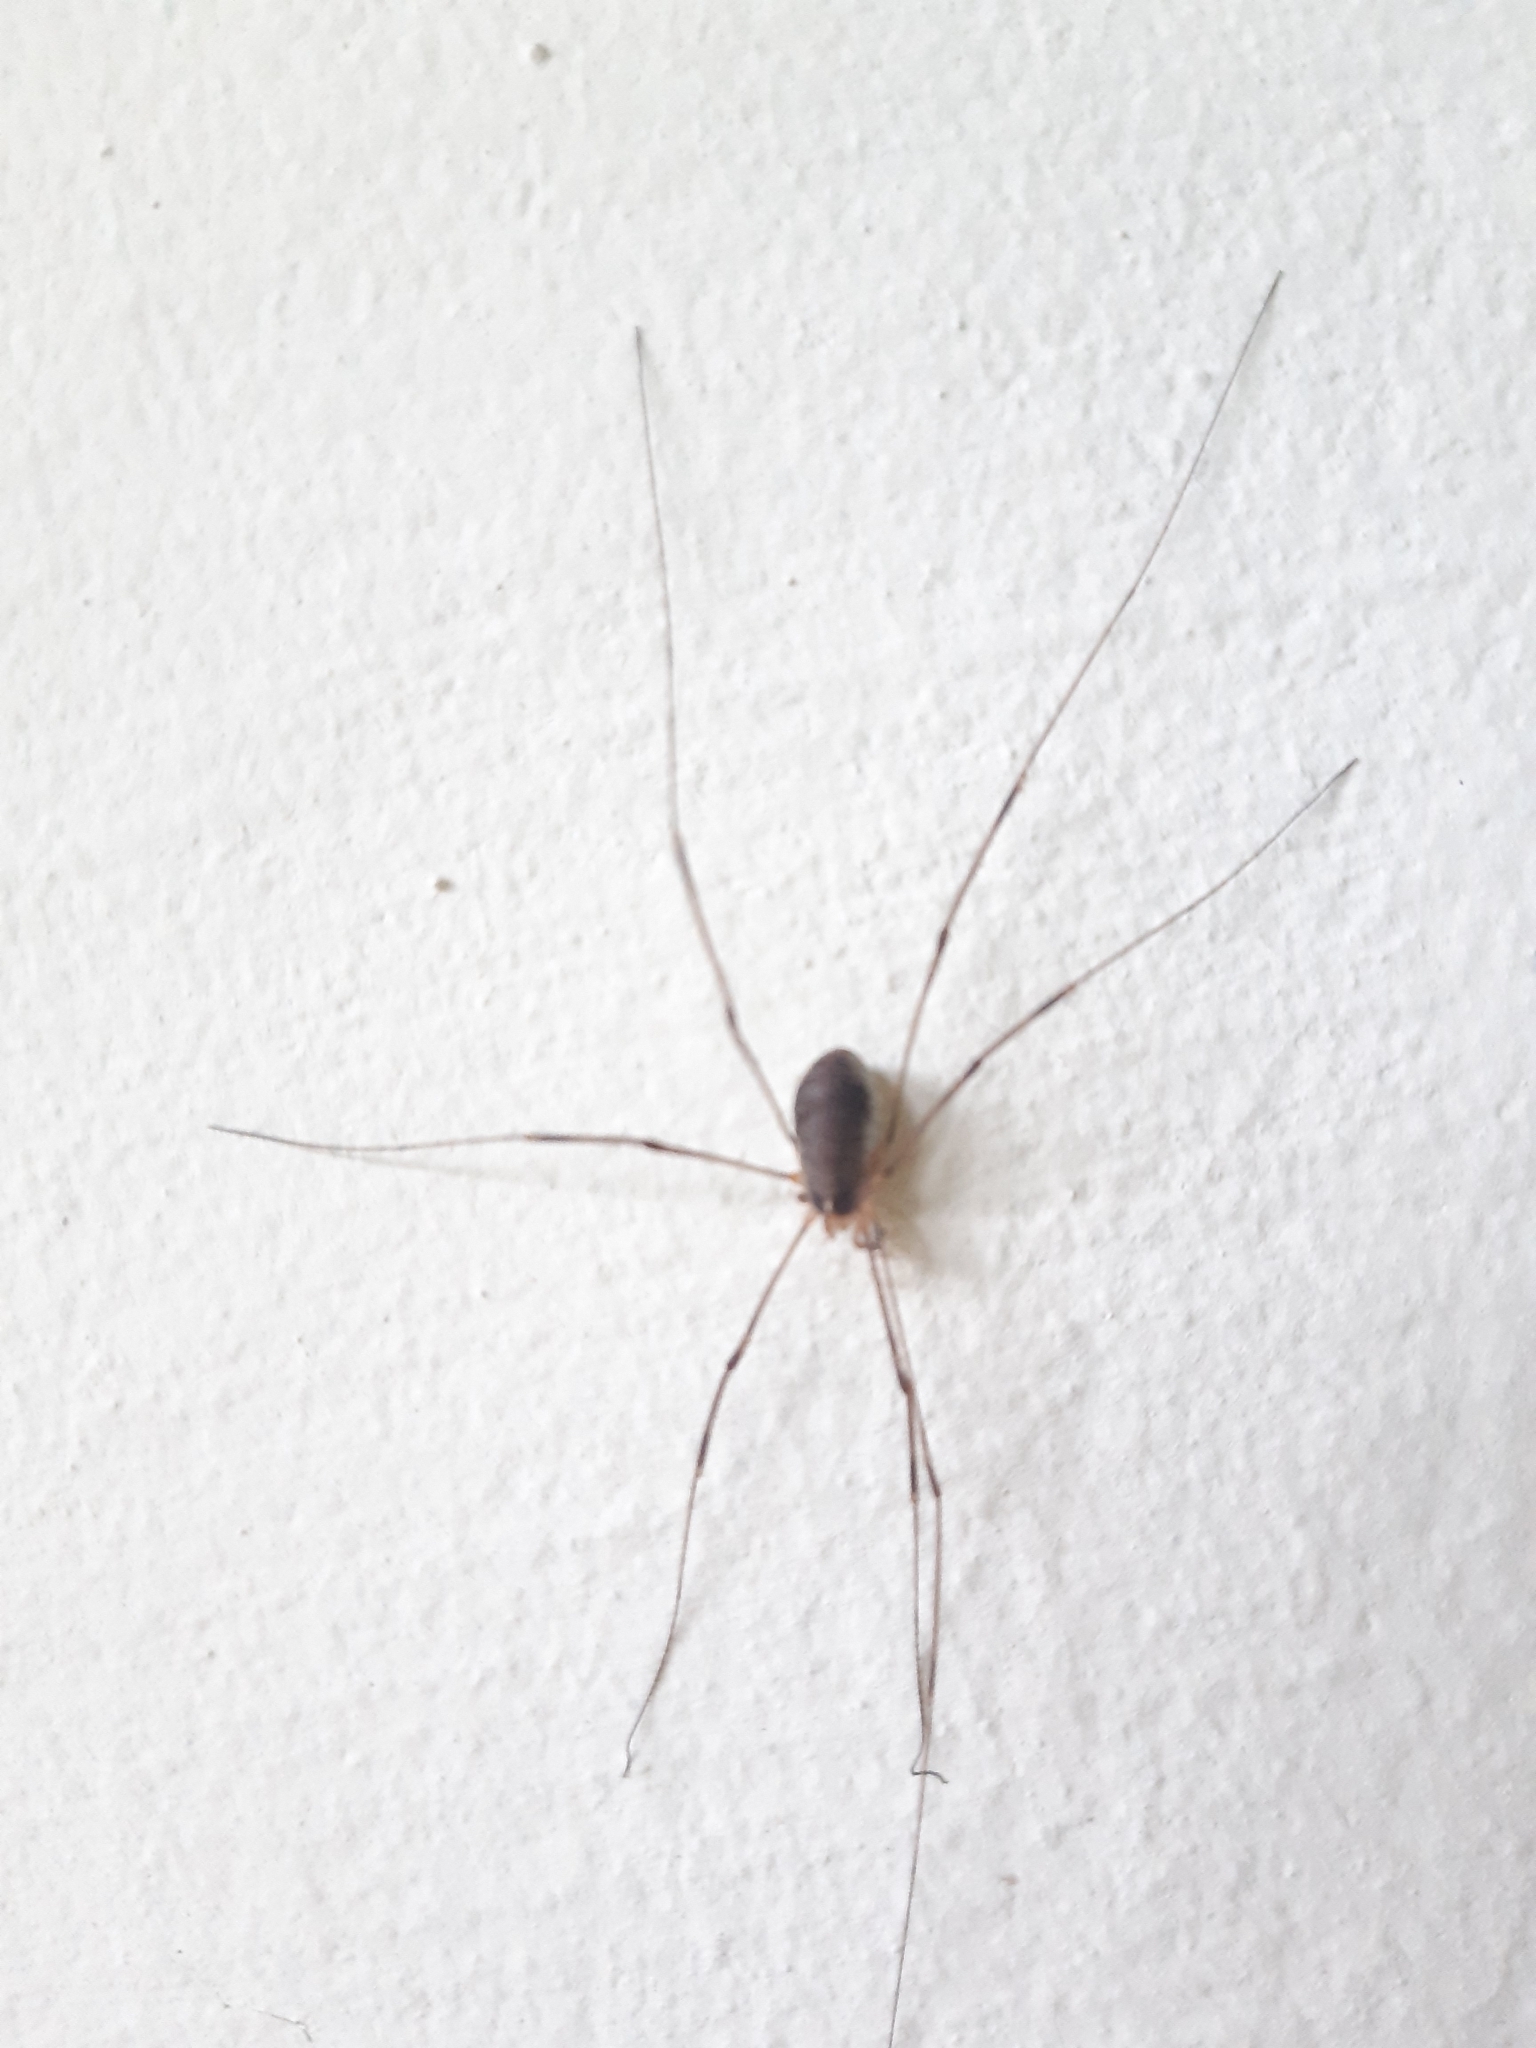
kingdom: Animalia
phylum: Arthropoda
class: Arachnida
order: Opiliones
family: Phalangiidae
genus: Opilio
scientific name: Opilio canestrinii
